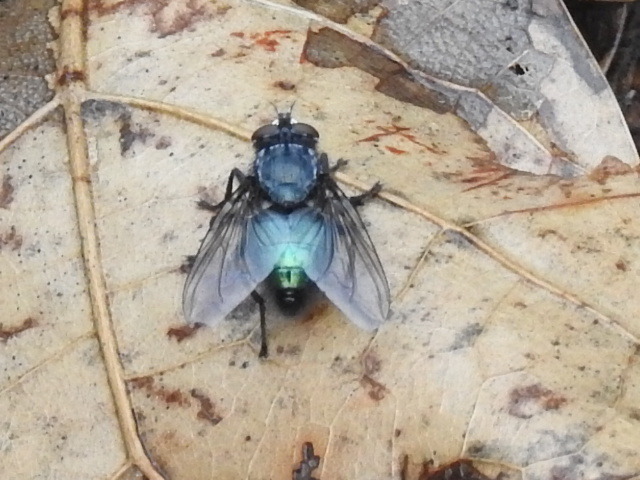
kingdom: Animalia
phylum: Arthropoda
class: Insecta
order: Diptera
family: Calliphoridae
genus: Cynomya
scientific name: Cynomya cadaverina
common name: Shiny blue bottle fly
